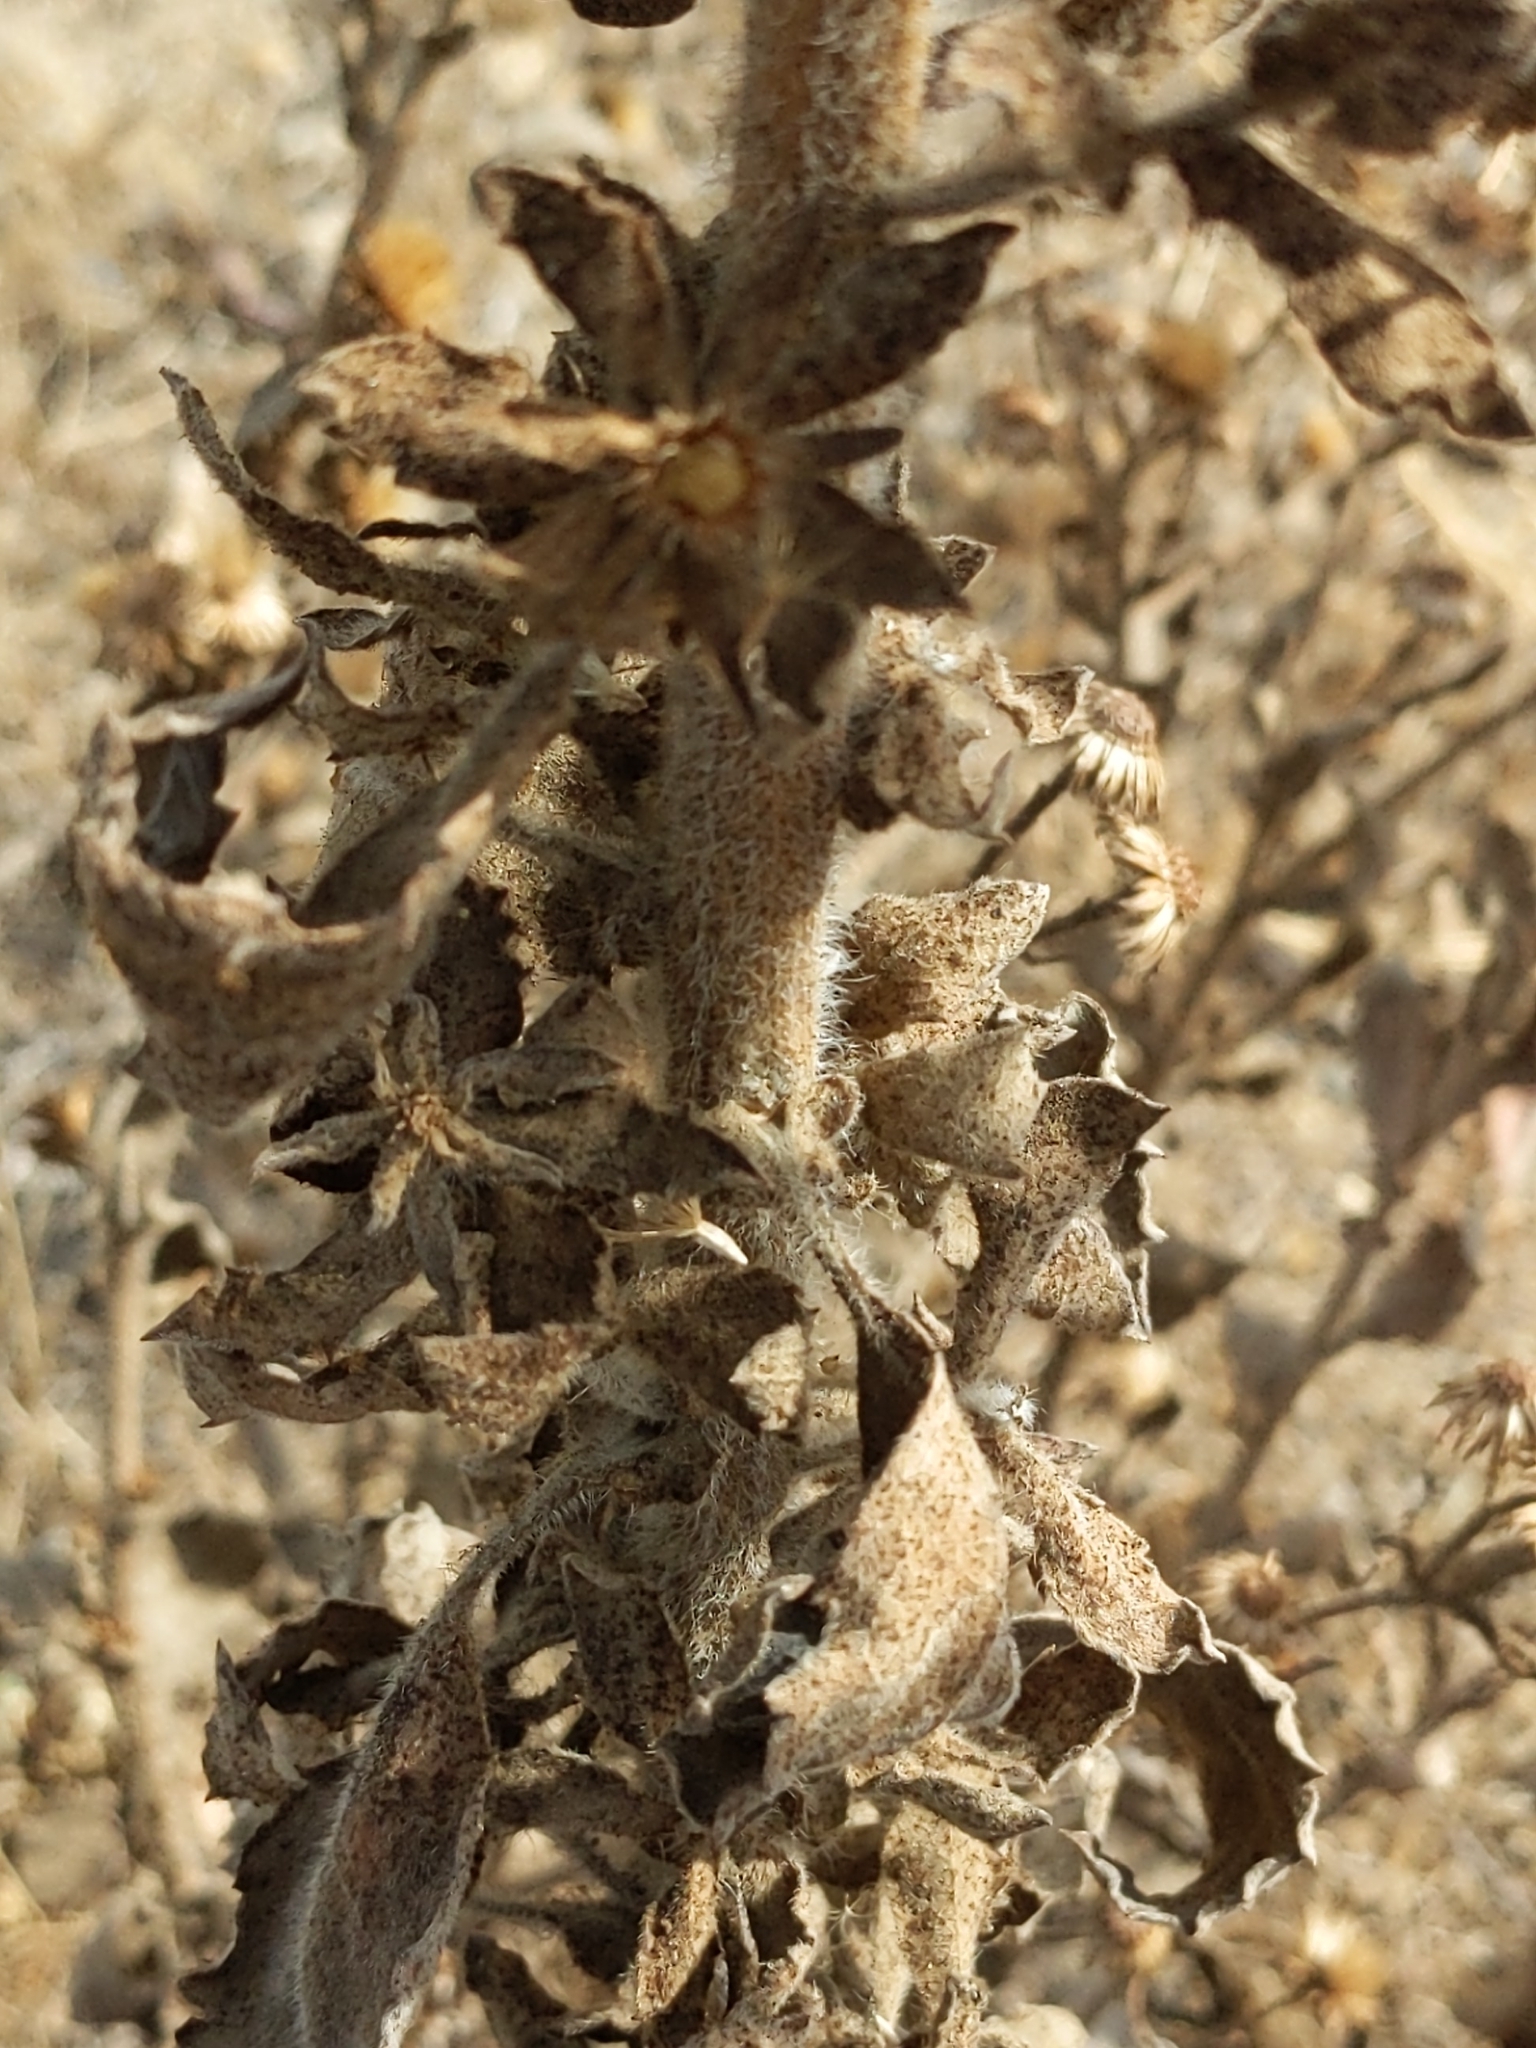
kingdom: Plantae
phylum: Tracheophyta
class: Magnoliopsida
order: Asterales
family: Asteraceae
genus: Heterotheca
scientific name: Heterotheca grandiflora
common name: Telegraphweed
